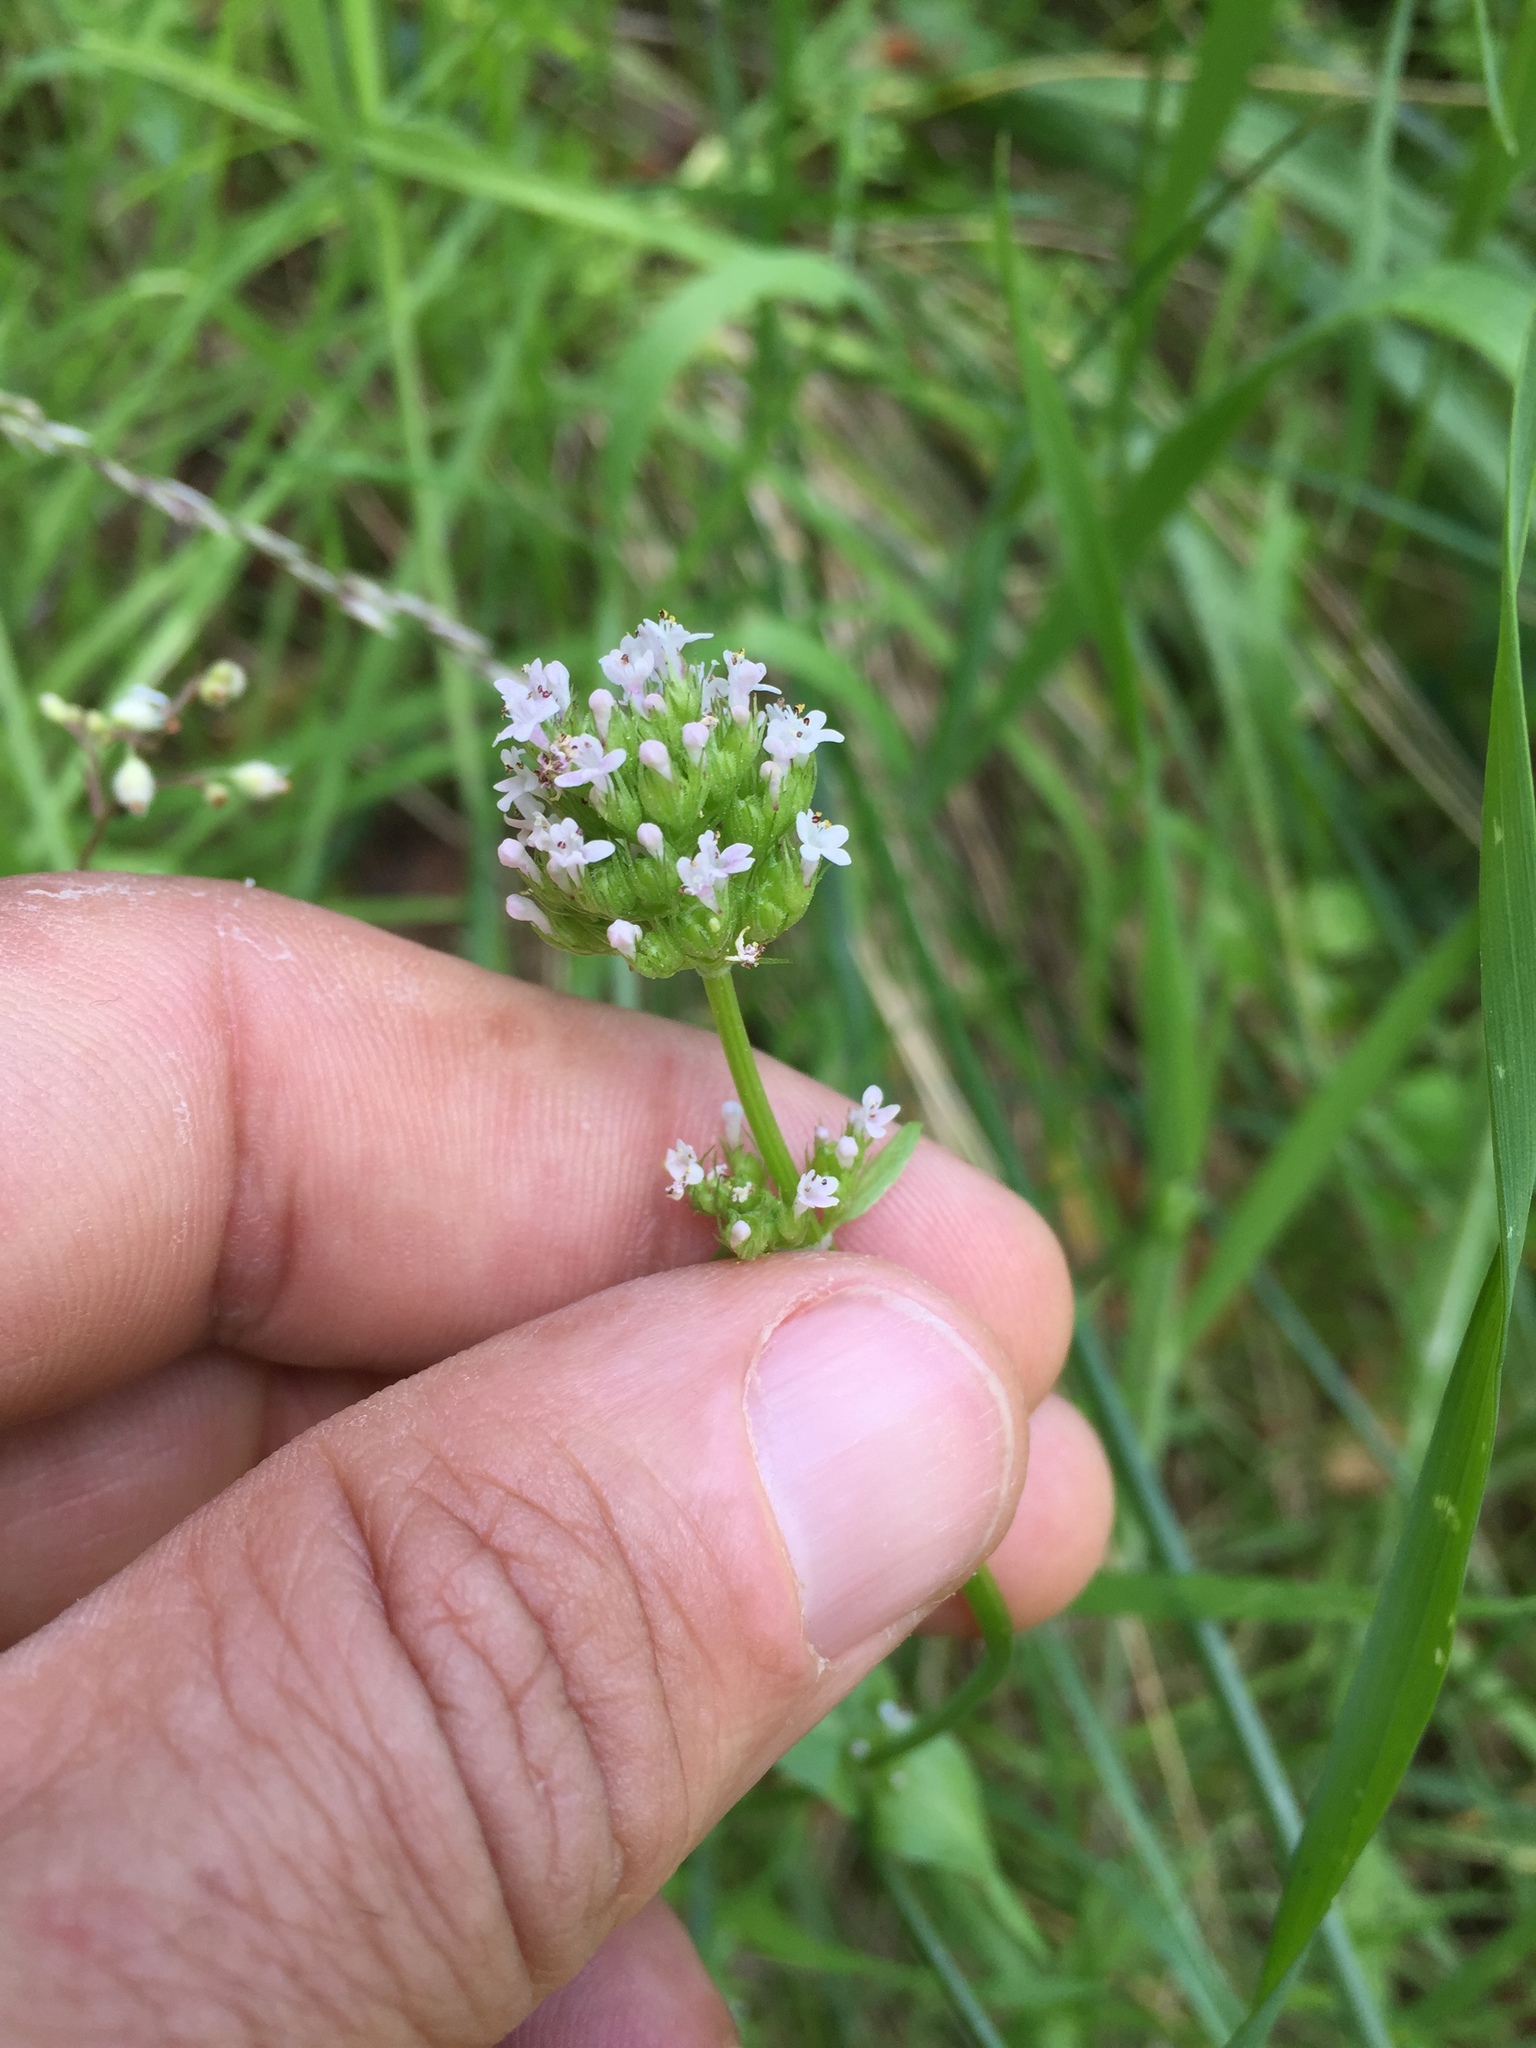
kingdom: Plantae
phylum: Tracheophyta
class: Magnoliopsida
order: Dipsacales
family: Caprifoliaceae
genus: Plectritis
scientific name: Plectritis brachystemon
